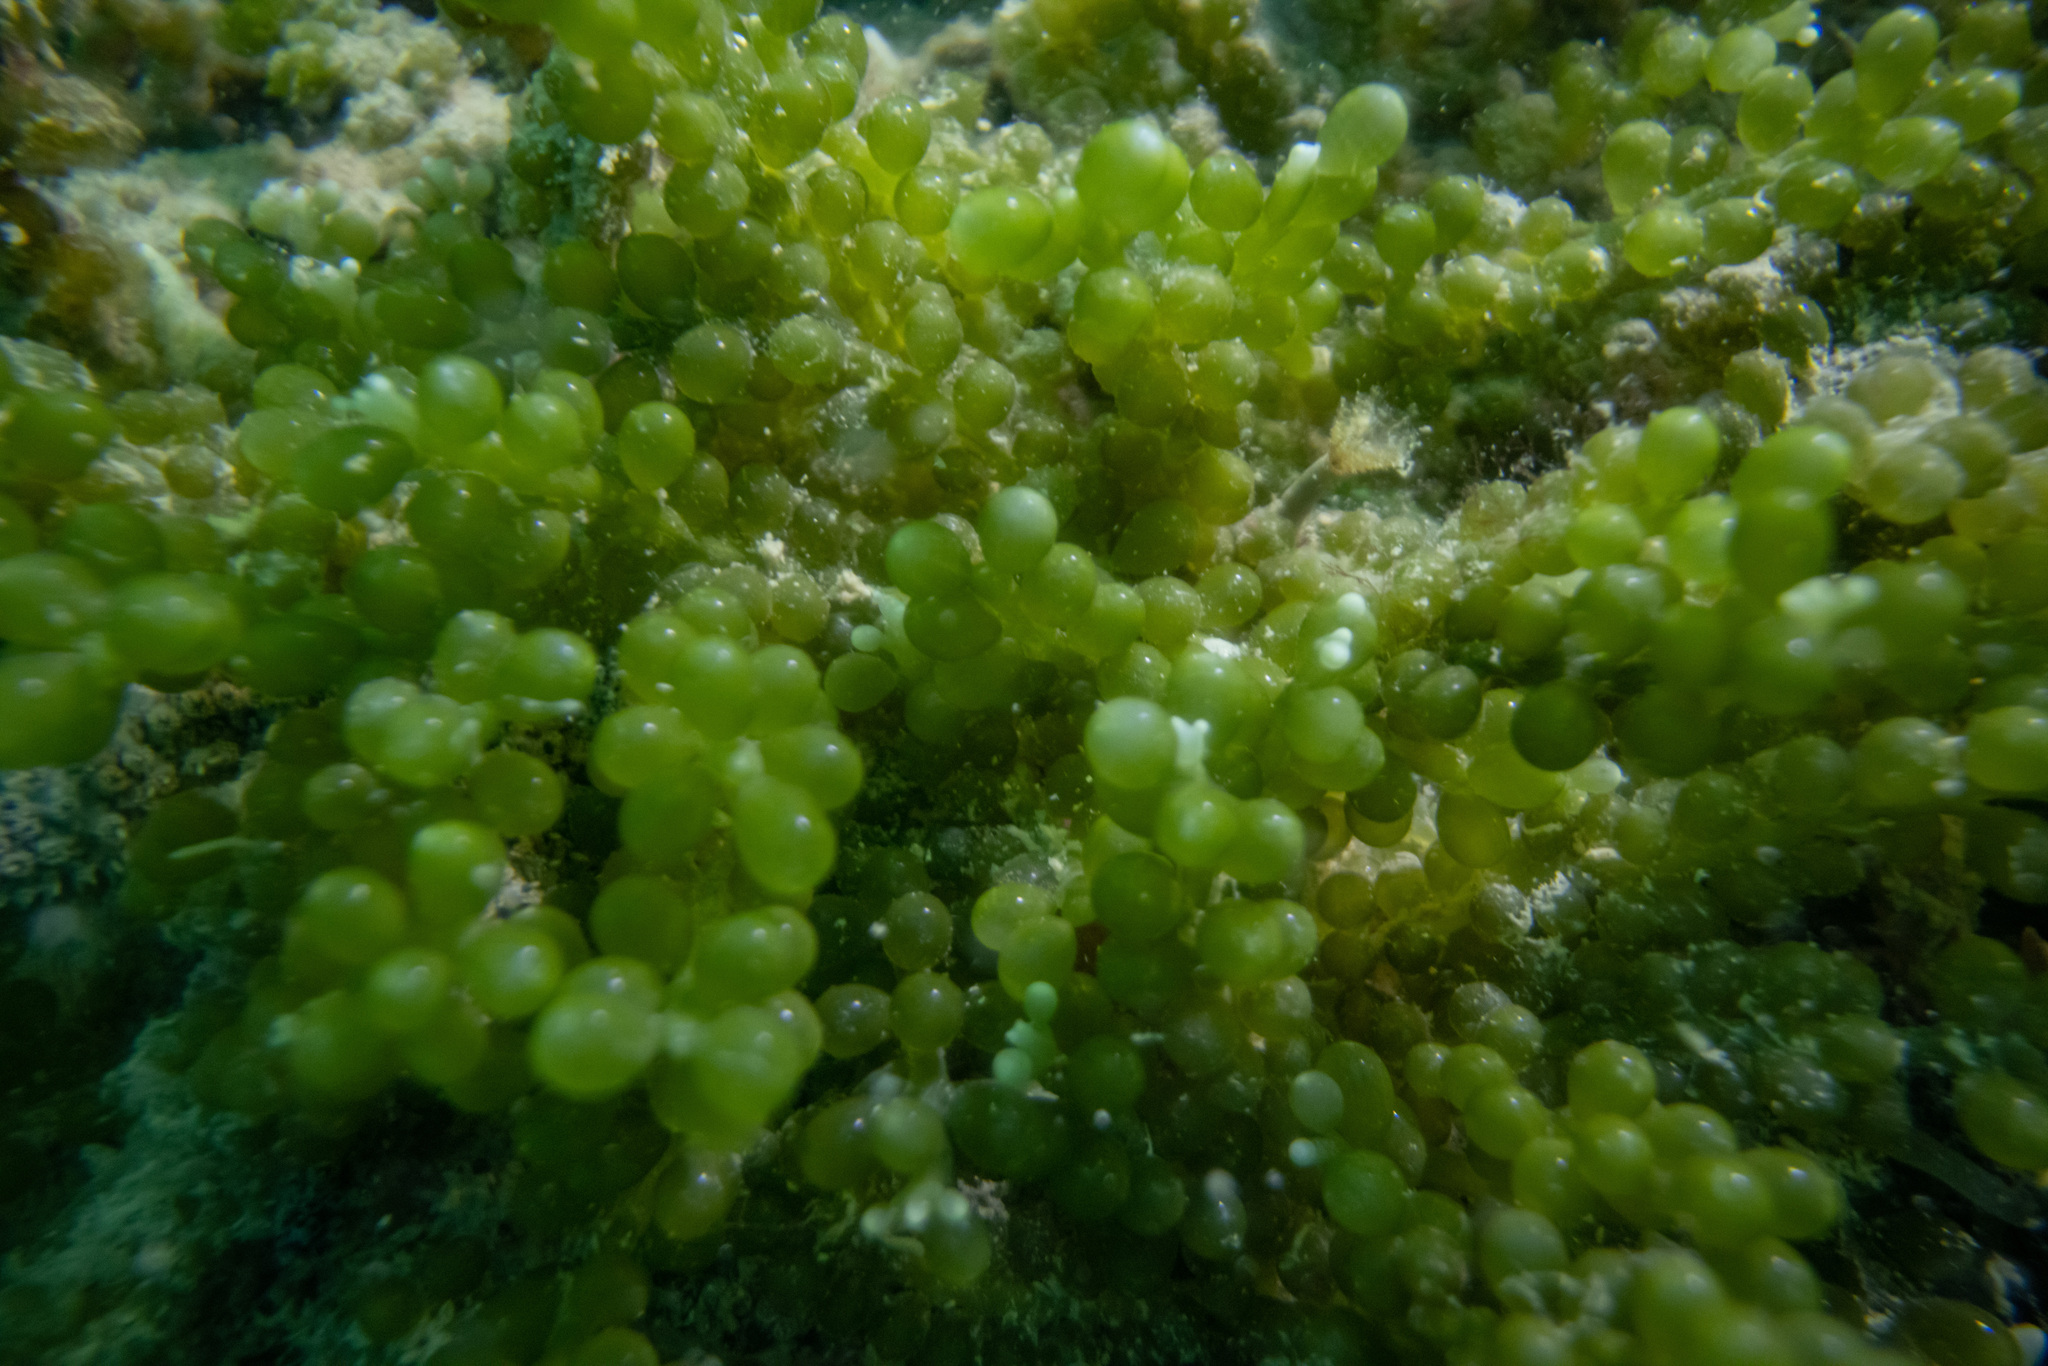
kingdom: Plantae
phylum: Chlorophyta
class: Ulvophyceae
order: Bryopsidales
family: Caulerpaceae
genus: Caulerpa
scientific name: Caulerpa geminata
